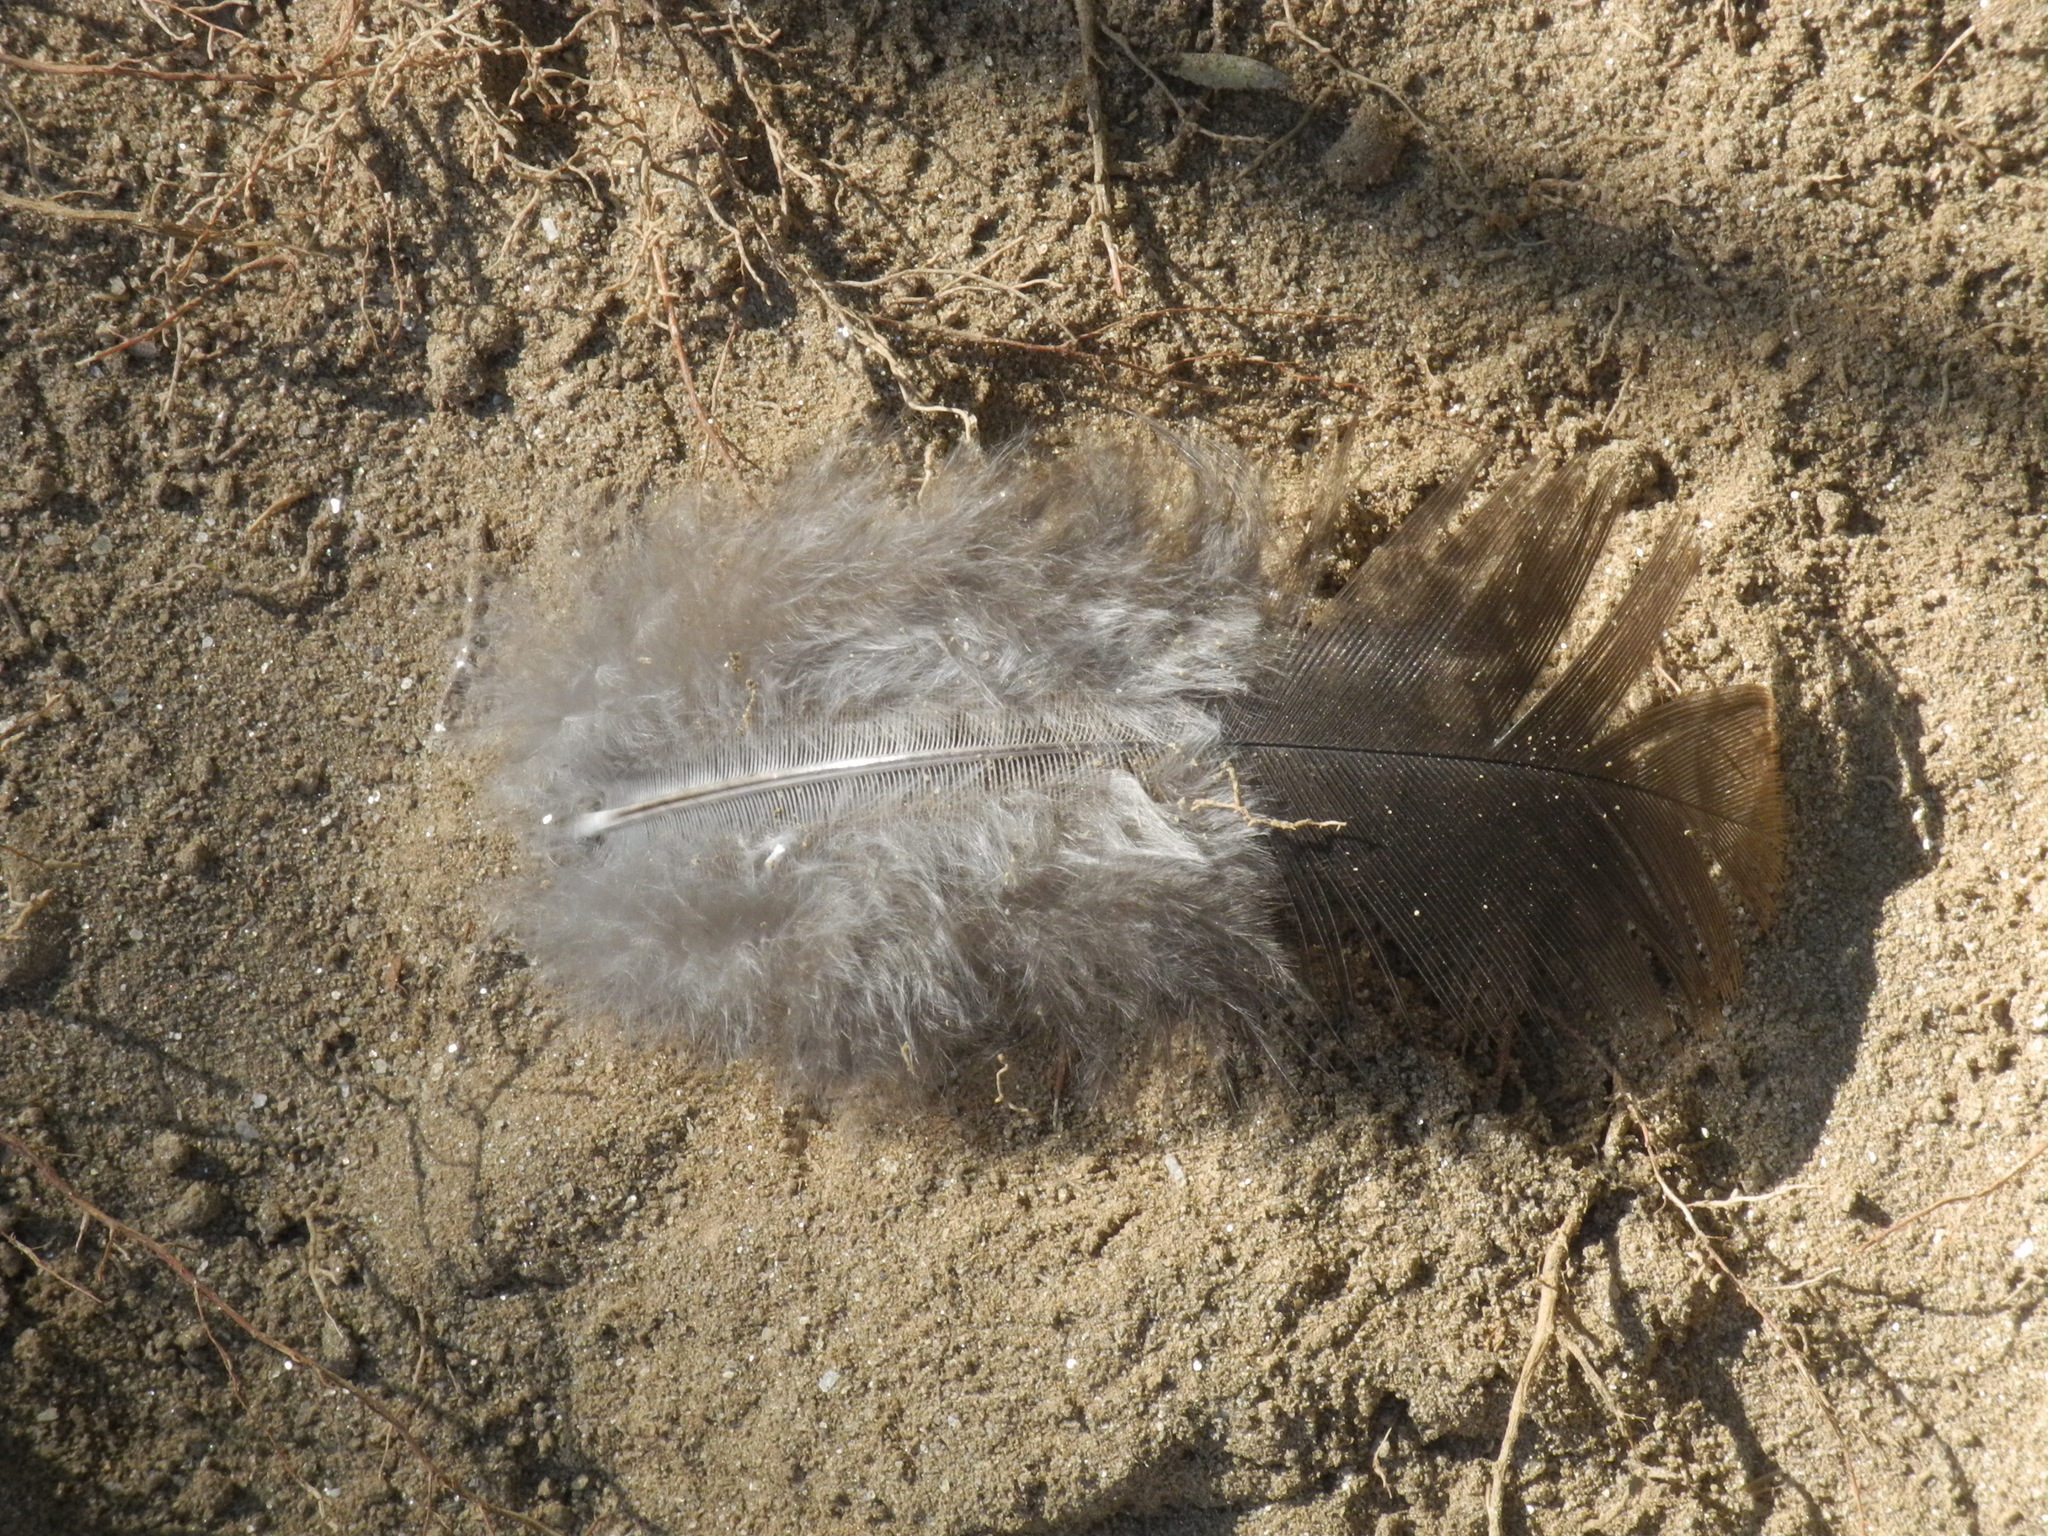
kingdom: Animalia
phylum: Chordata
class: Aves
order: Galliformes
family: Phasianidae
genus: Meleagris
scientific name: Meleagris gallopavo
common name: Wild turkey
